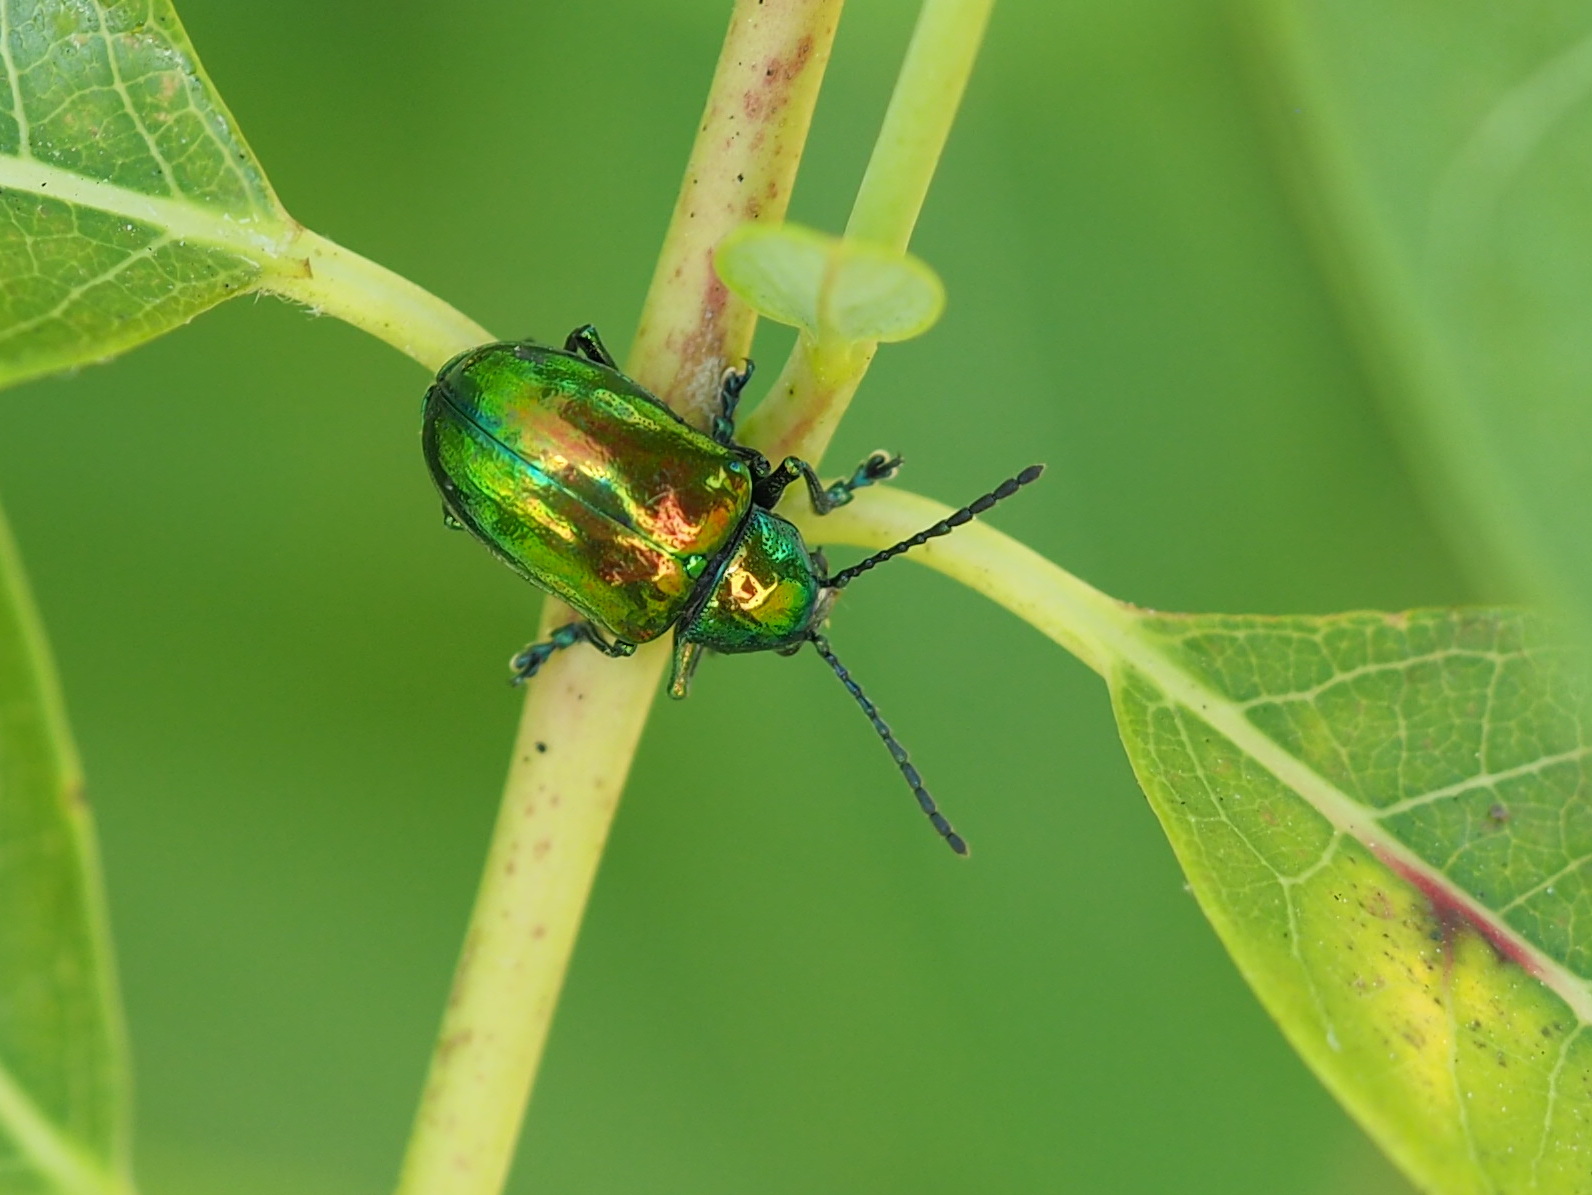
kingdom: Animalia
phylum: Arthropoda
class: Insecta
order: Coleoptera
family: Chrysomelidae
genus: Chrysochus
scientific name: Chrysochus auratus
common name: Dogbane leaf beetle
